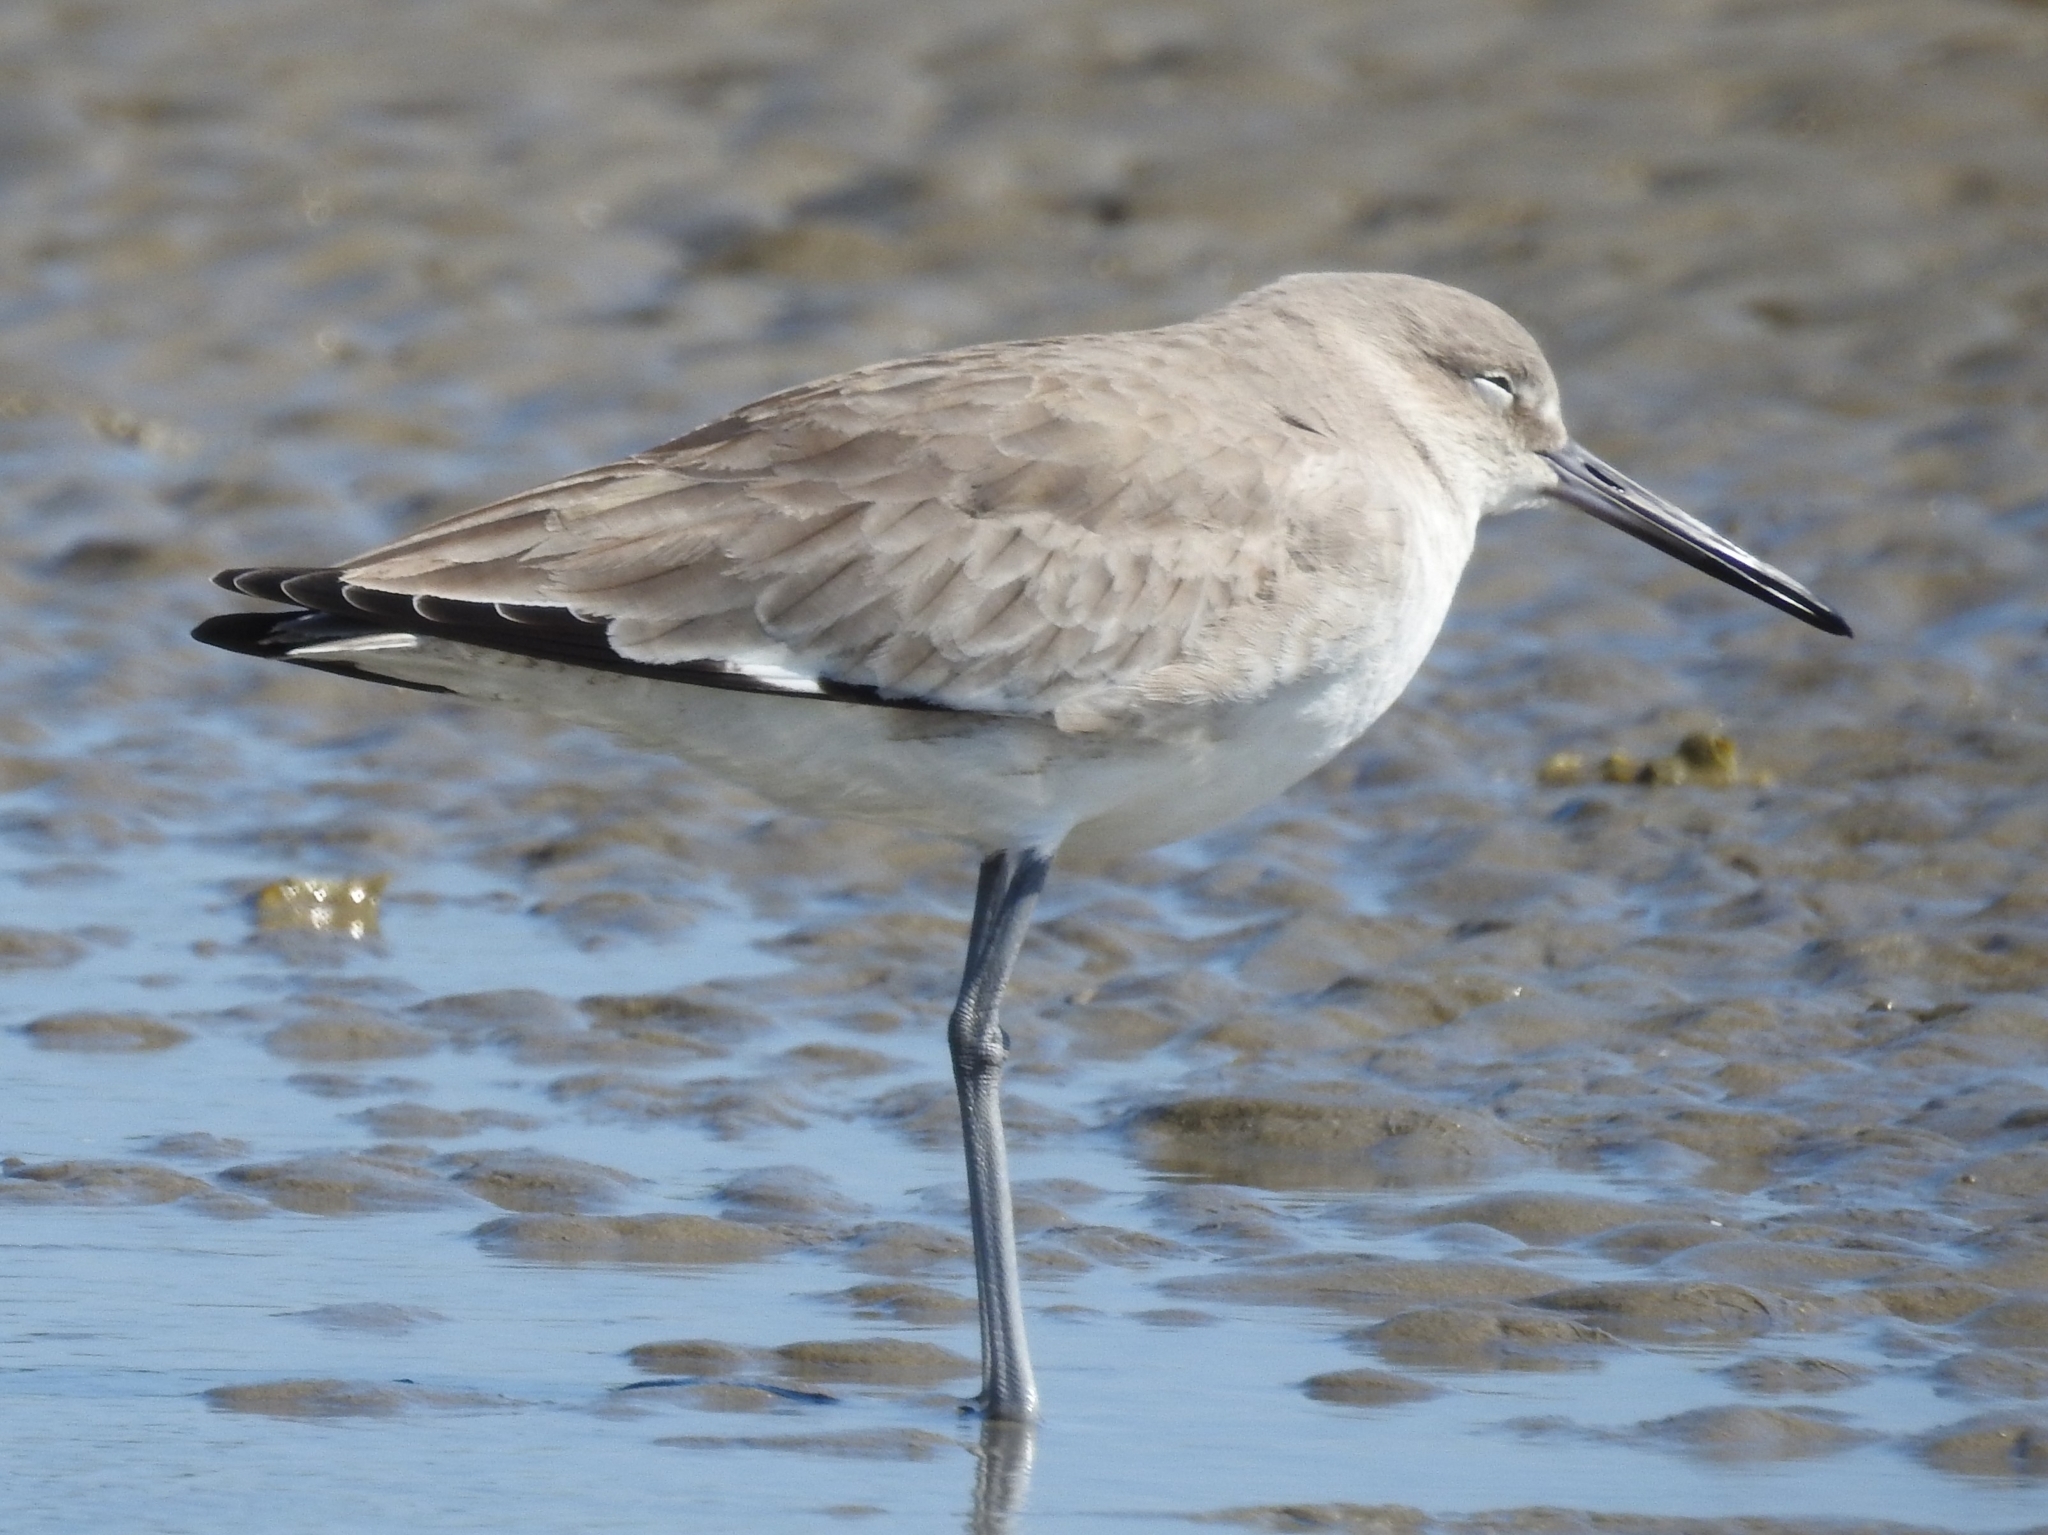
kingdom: Animalia
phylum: Chordata
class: Aves
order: Charadriiformes
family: Scolopacidae
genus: Tringa
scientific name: Tringa semipalmata
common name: Willet
